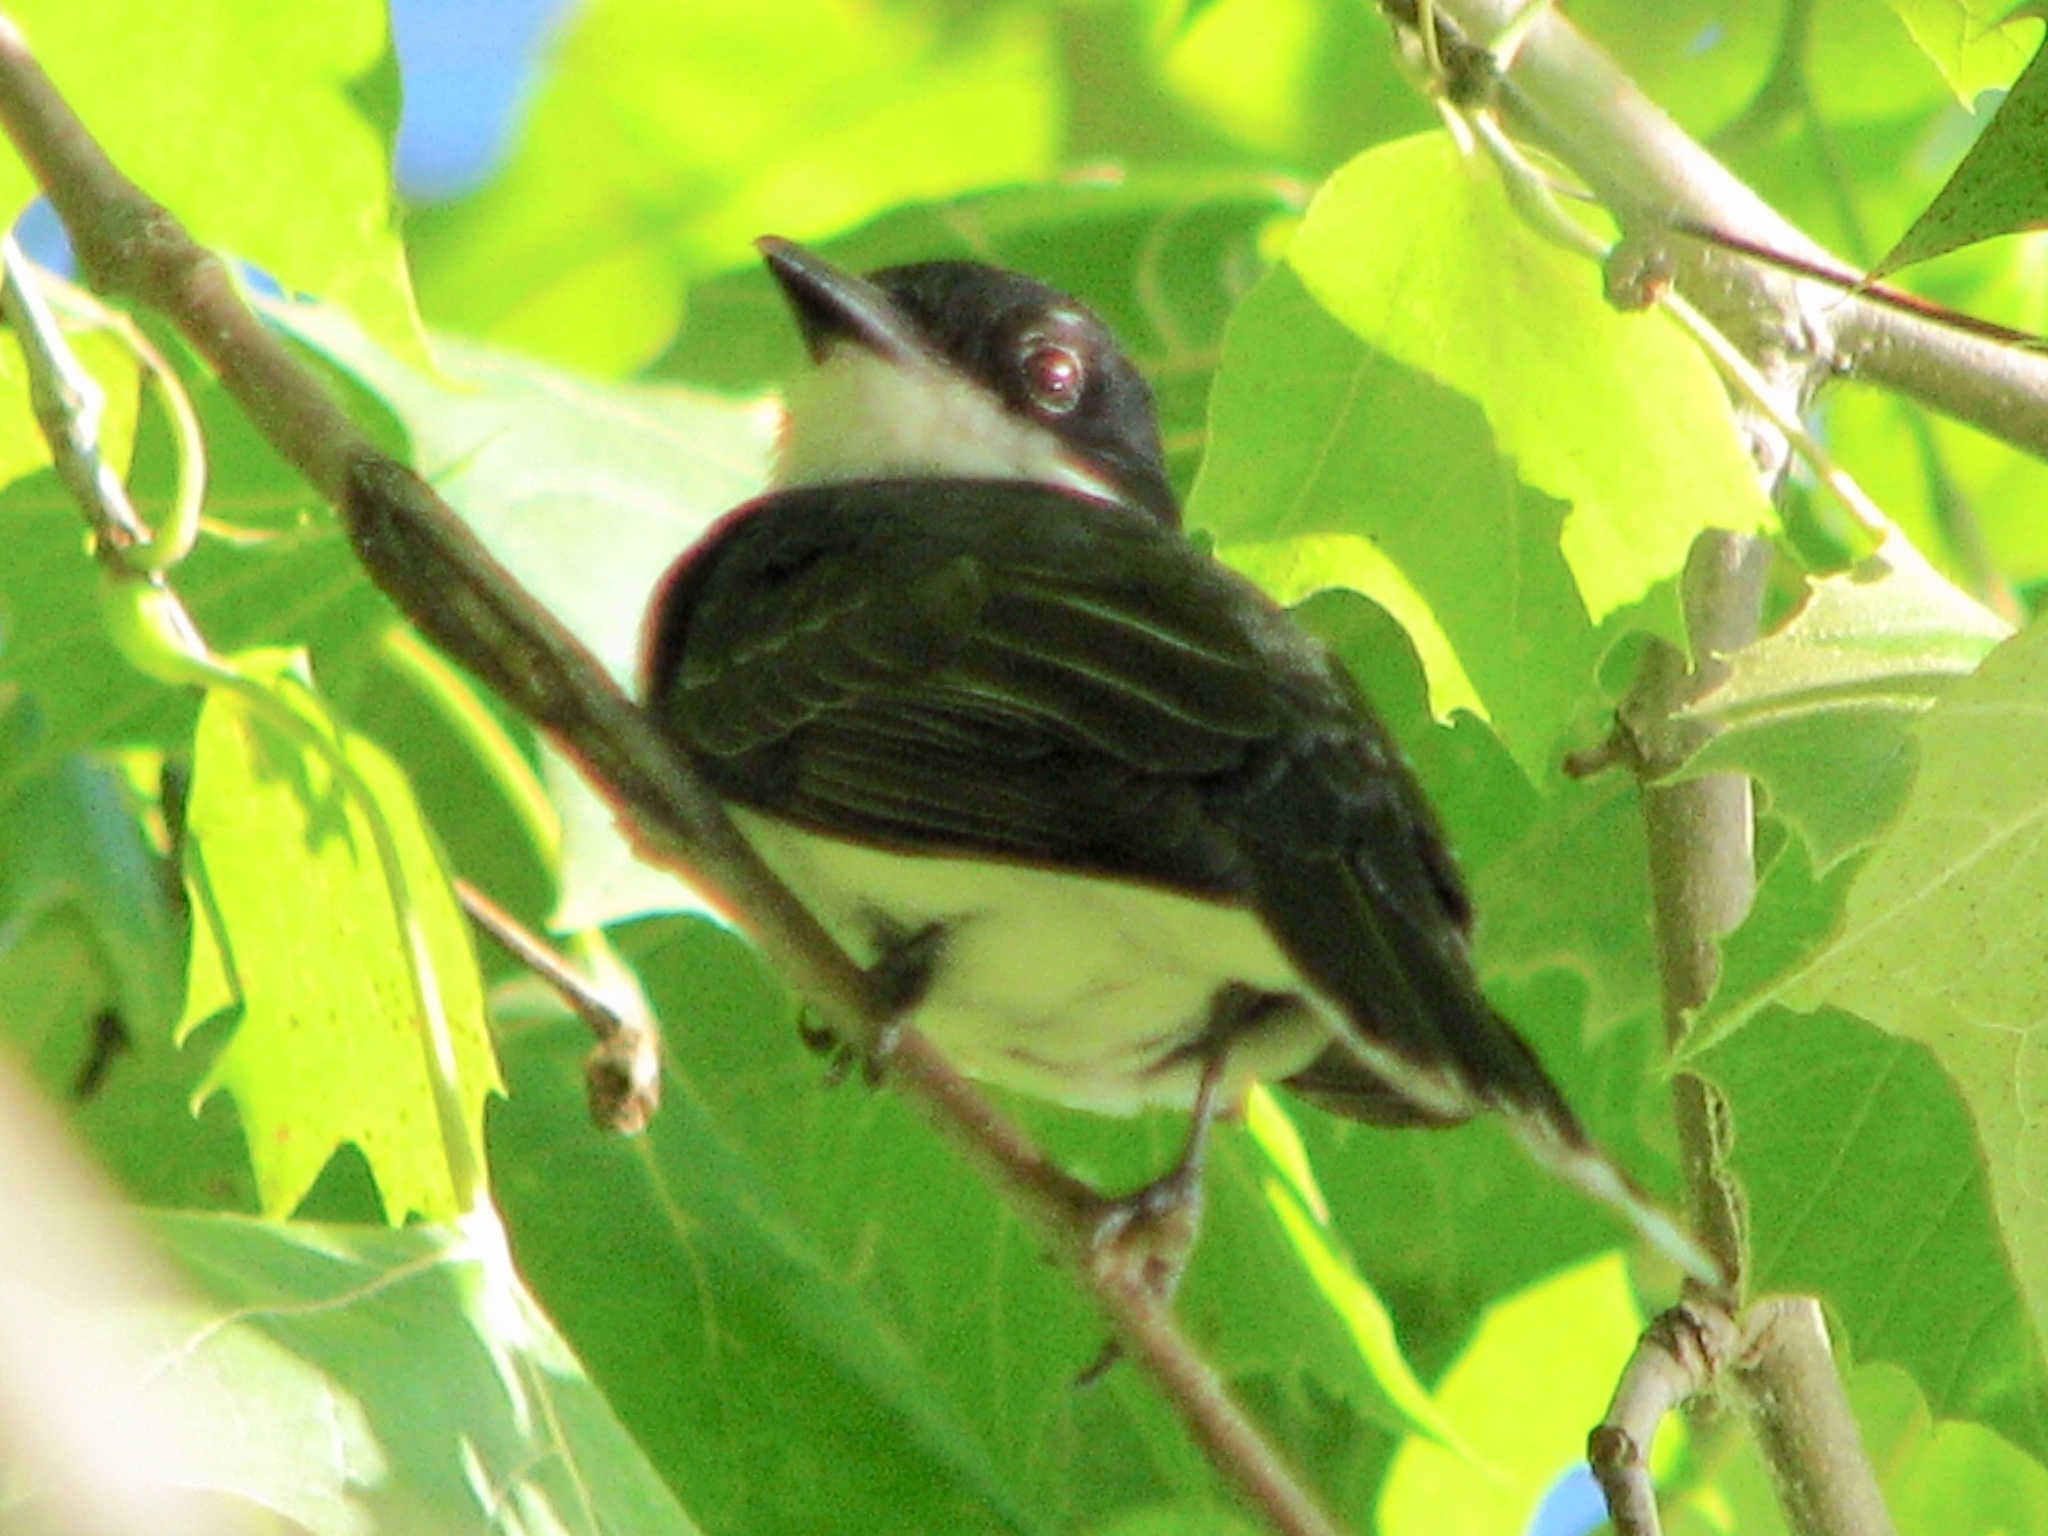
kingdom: Animalia
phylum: Chordata
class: Aves
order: Passeriformes
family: Tyrannidae
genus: Tyrannus
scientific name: Tyrannus tyrannus
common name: Eastern kingbird
